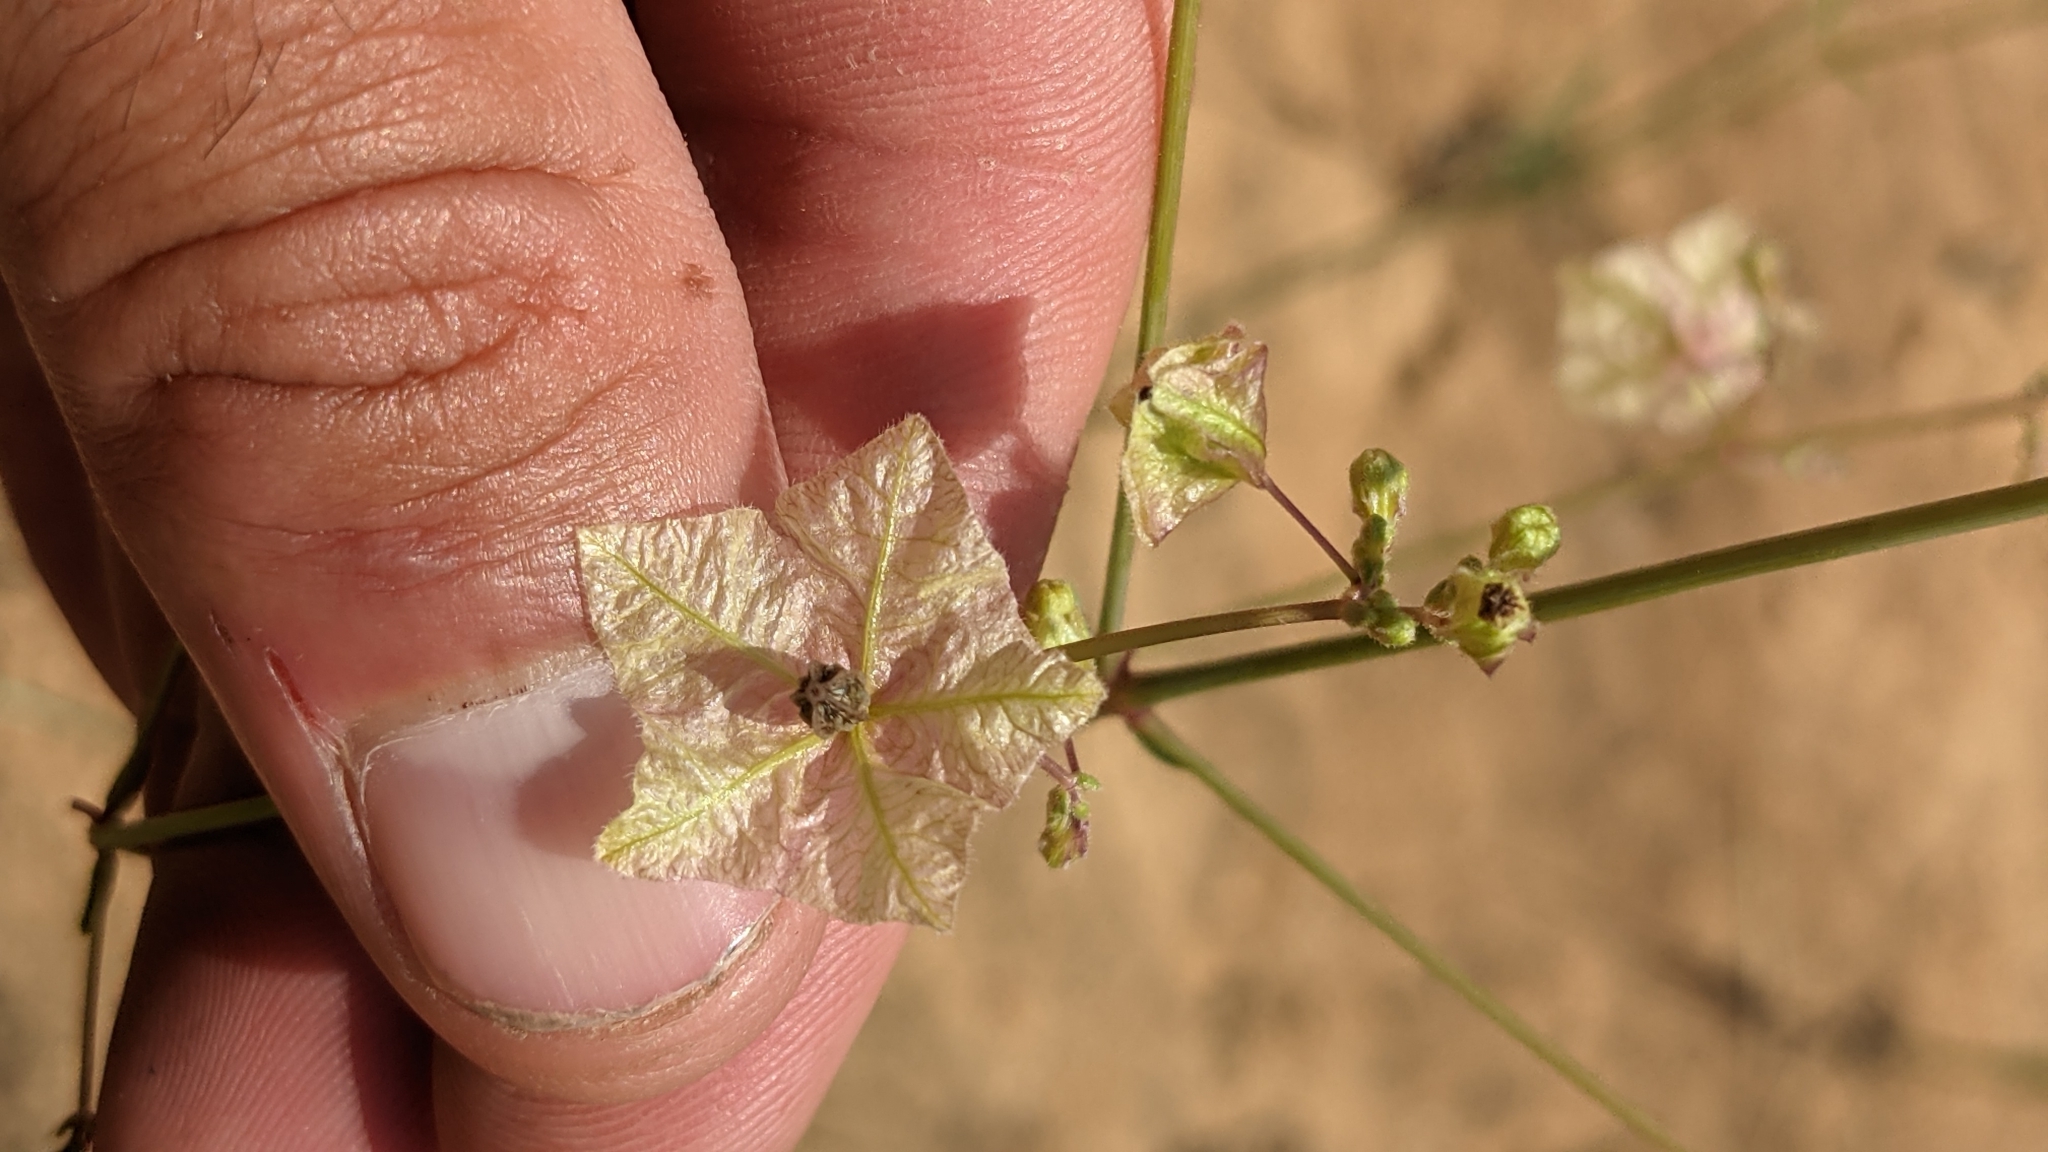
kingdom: Plantae
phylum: Tracheophyta
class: Magnoliopsida
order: Caryophyllales
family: Nyctaginaceae
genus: Mirabilis
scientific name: Mirabilis linearis
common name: Linear-leaved four-o'clock
